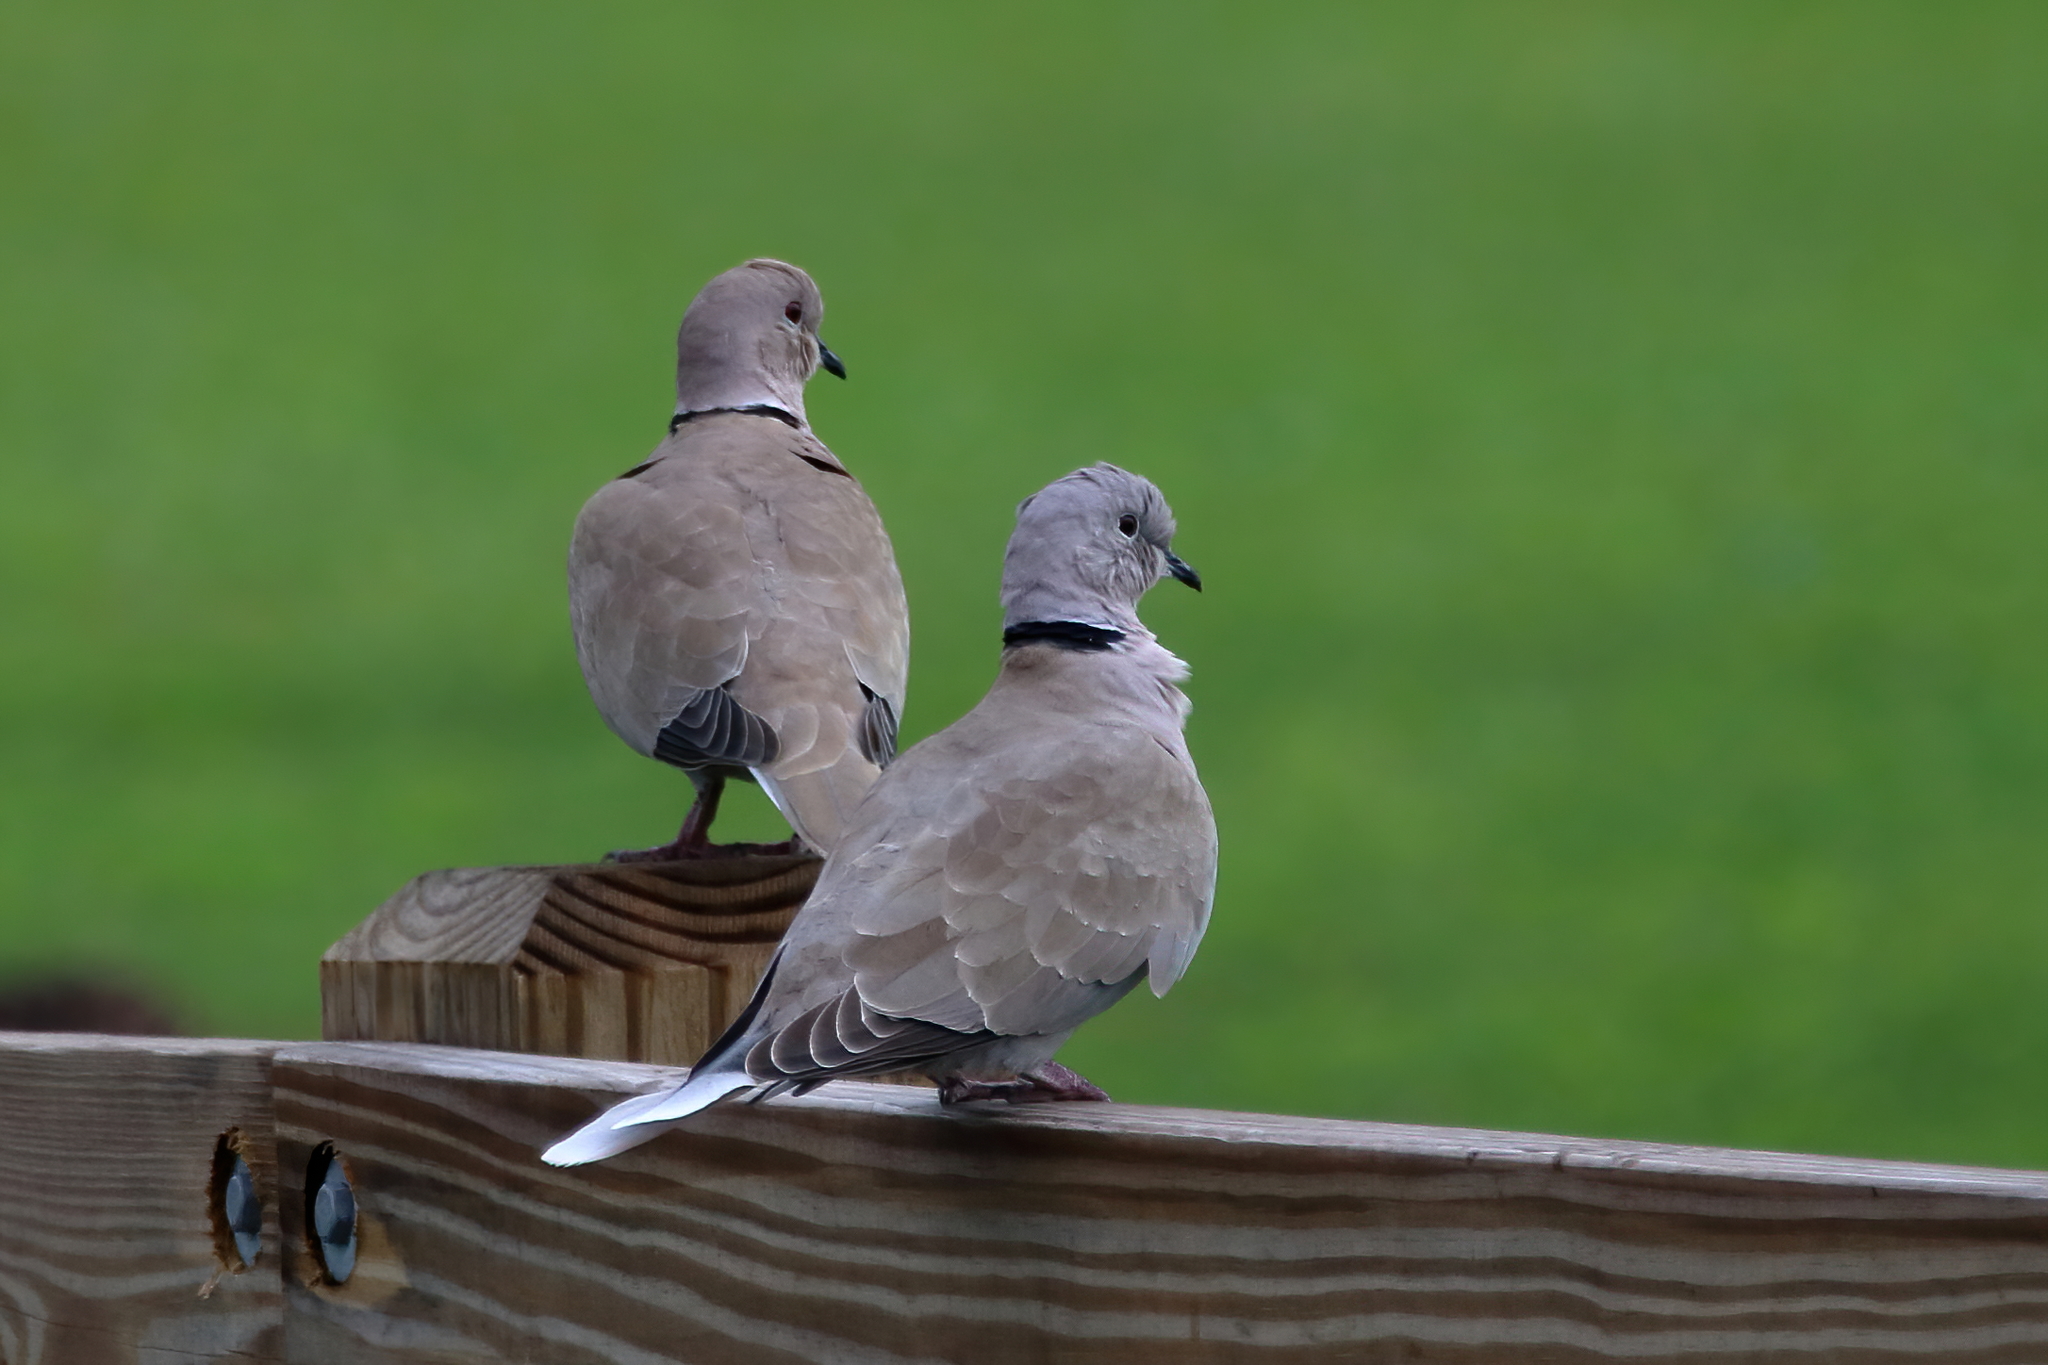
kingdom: Animalia
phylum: Chordata
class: Aves
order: Columbiformes
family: Columbidae
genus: Streptopelia
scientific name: Streptopelia decaocto
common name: Eurasian collared dove
